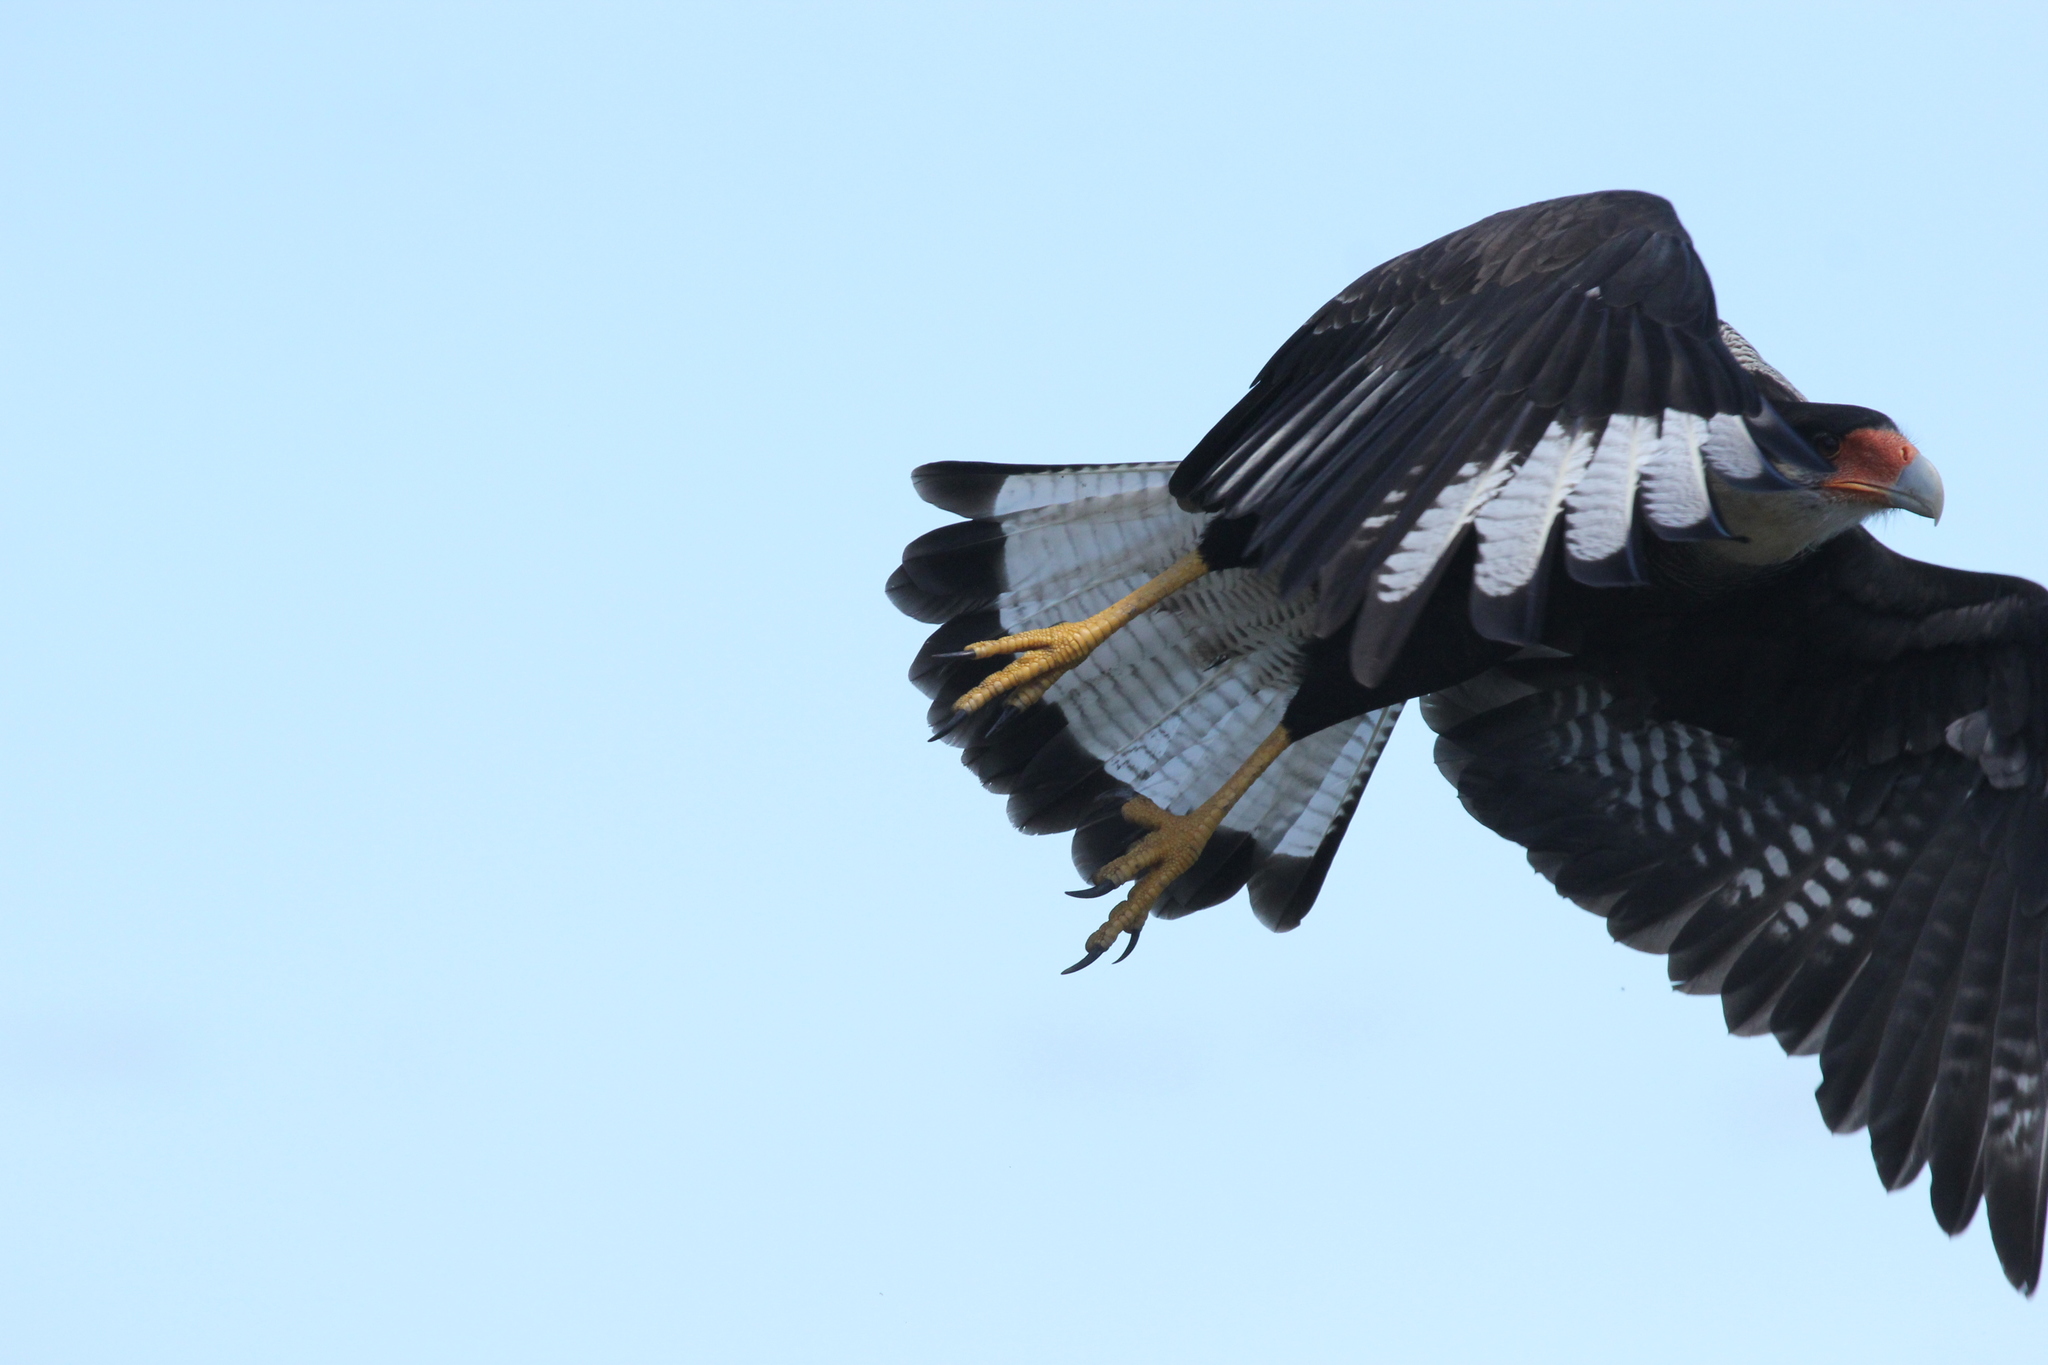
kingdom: Animalia
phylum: Chordata
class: Aves
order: Falconiformes
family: Falconidae
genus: Caracara
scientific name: Caracara plancus
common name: Southern caracara
